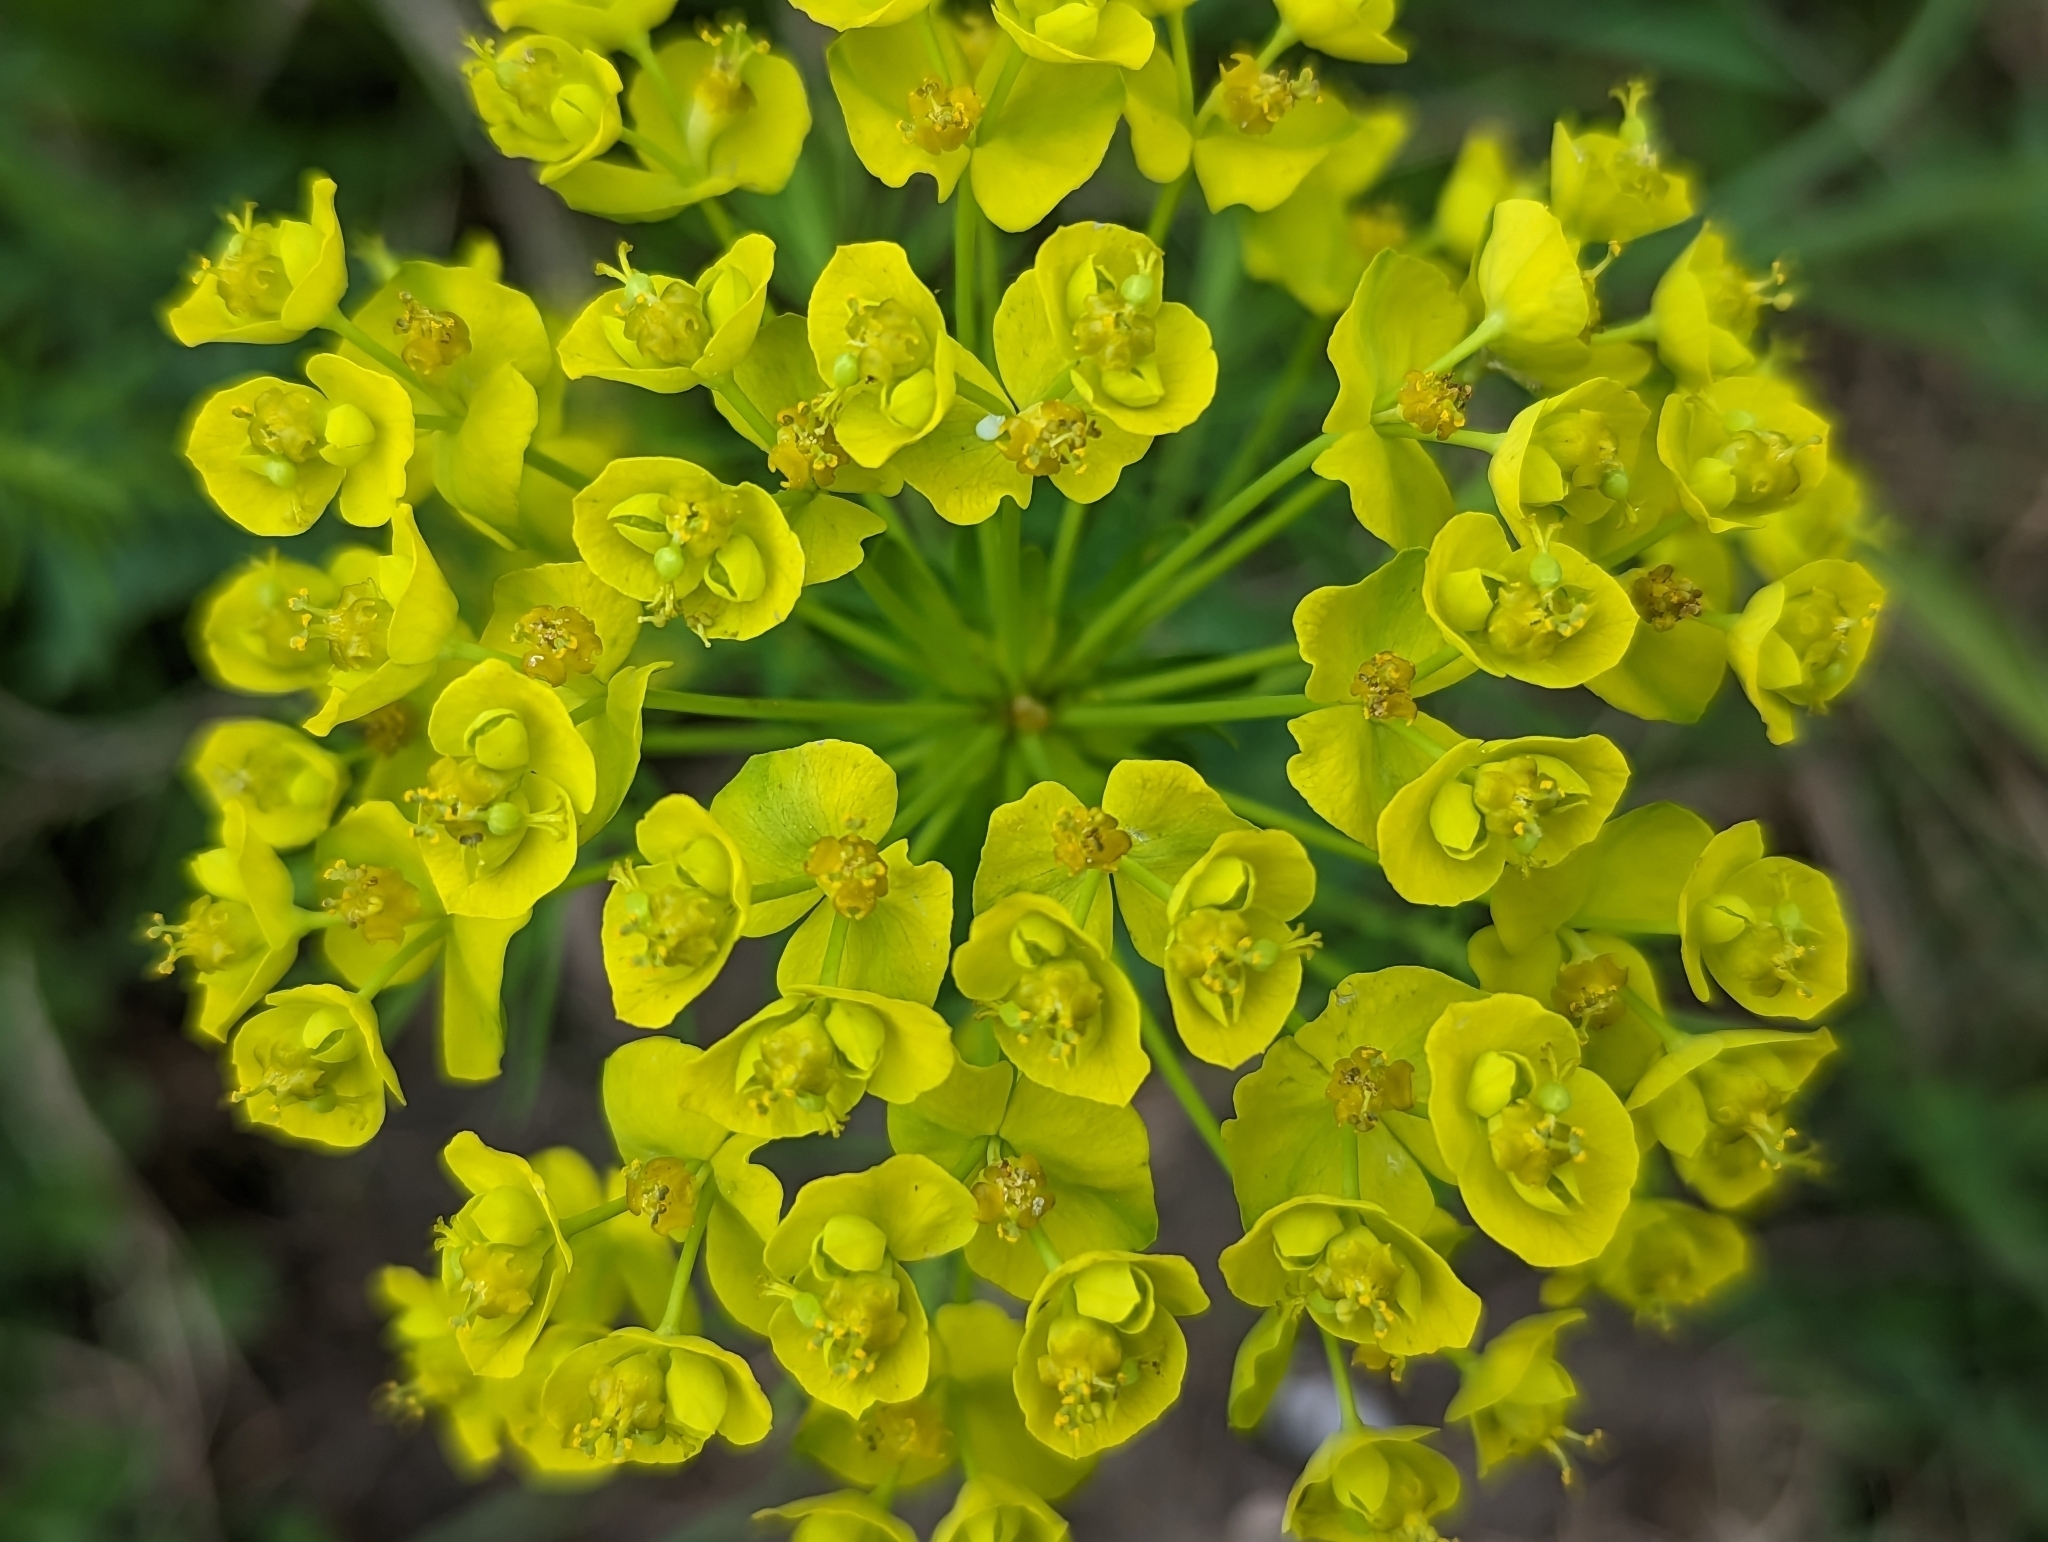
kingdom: Plantae
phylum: Tracheophyta
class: Magnoliopsida
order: Malpighiales
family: Euphorbiaceae
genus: Euphorbia
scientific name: Euphorbia cyparissias
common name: Cypress spurge
